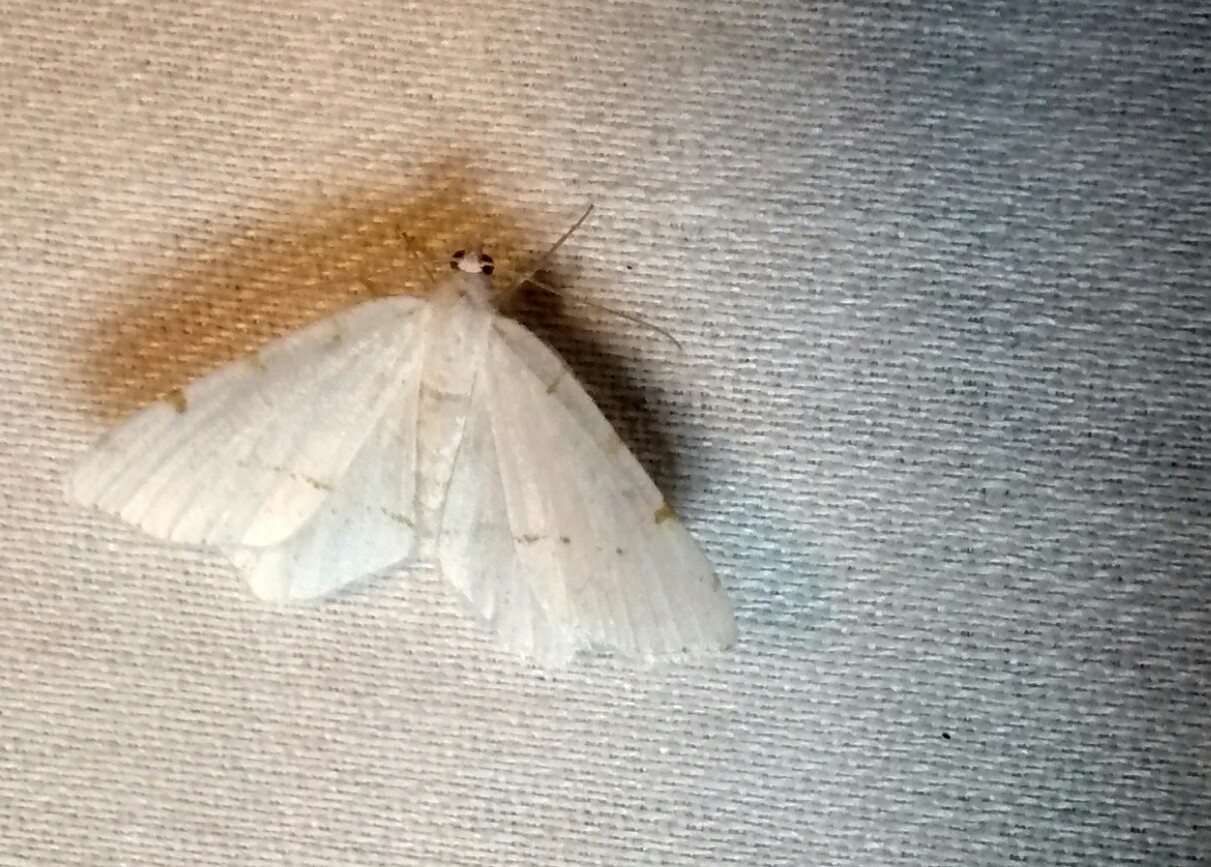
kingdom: Animalia
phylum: Arthropoda
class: Insecta
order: Lepidoptera
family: Geometridae
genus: Macaria
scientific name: Macaria pustularia
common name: Lesser maple spanworm moth
